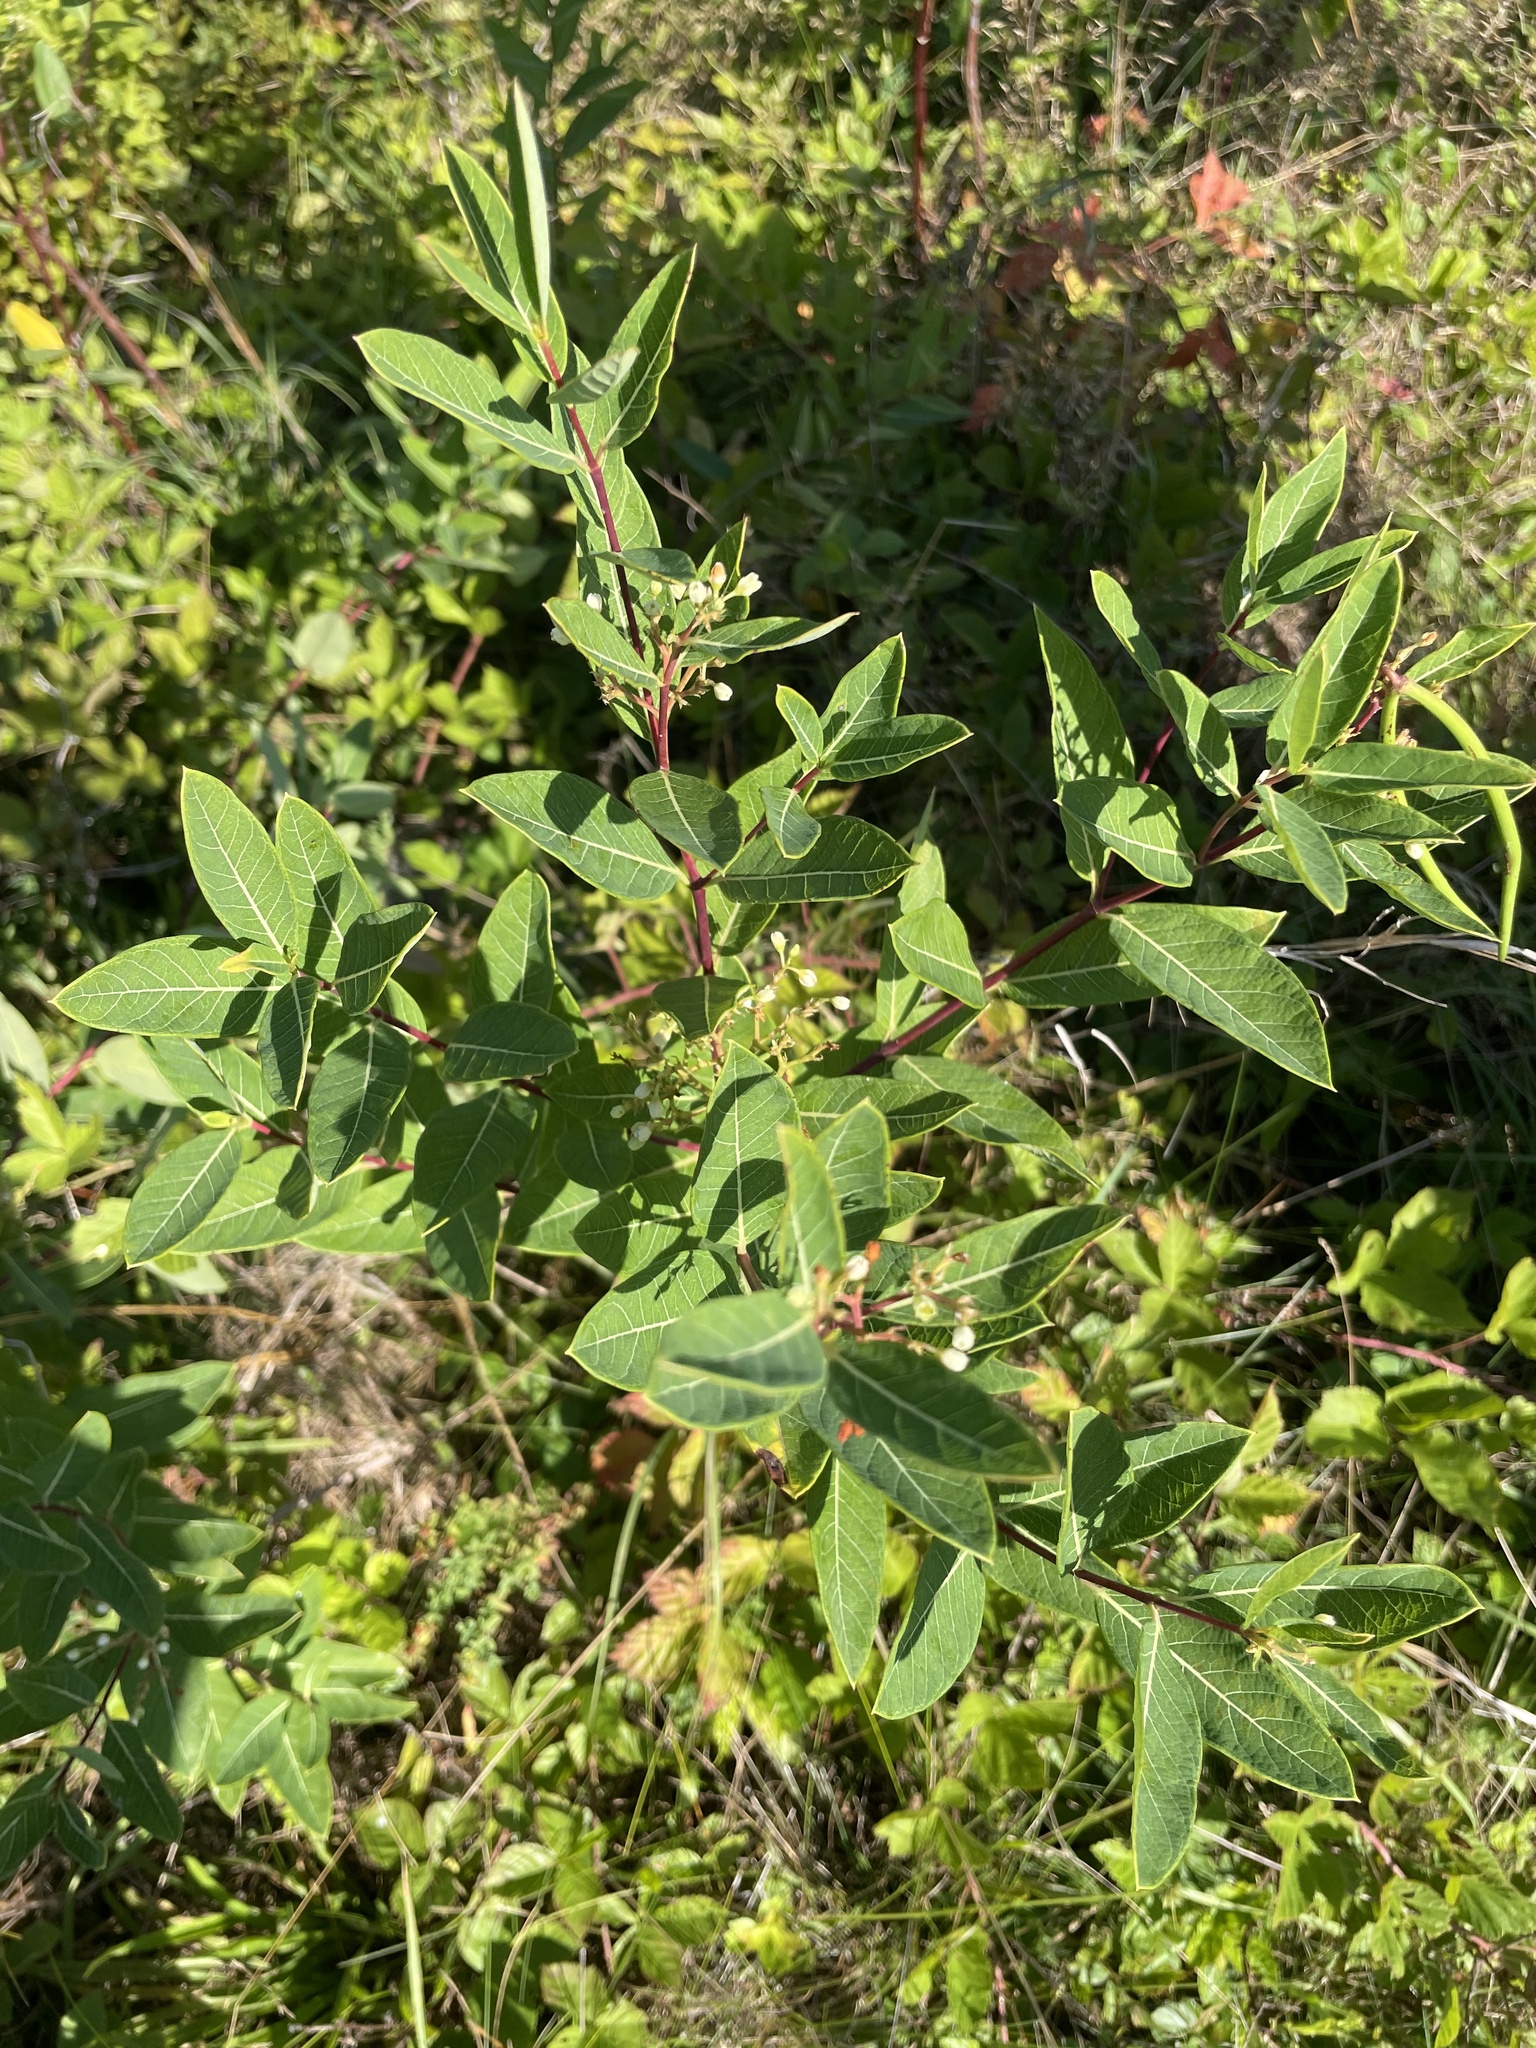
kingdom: Plantae
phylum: Tracheophyta
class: Magnoliopsida
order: Gentianales
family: Apocynaceae
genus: Apocynum
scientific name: Apocynum cannabinum
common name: Hemp dogbane
